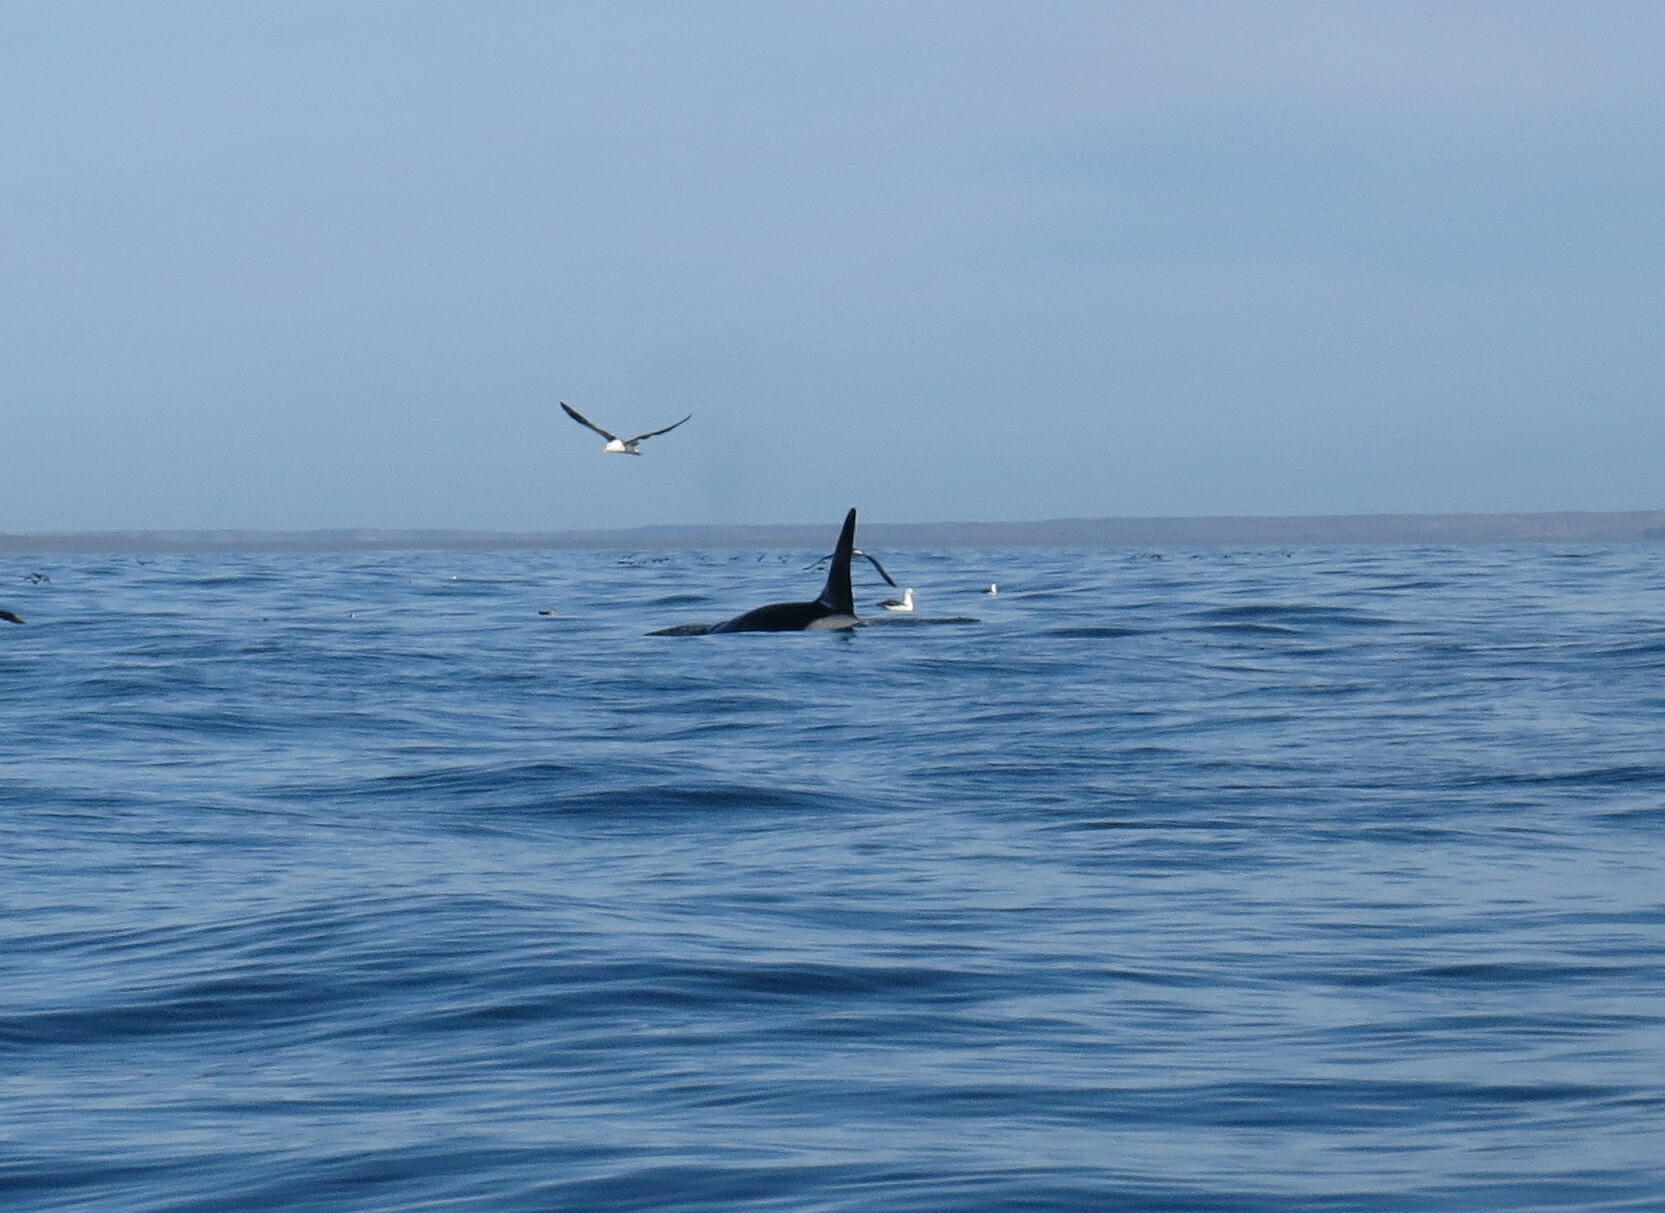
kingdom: Animalia
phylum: Chordata
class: Mammalia
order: Cetacea
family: Delphinidae
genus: Orcinus
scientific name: Orcinus orca
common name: Killer whale
